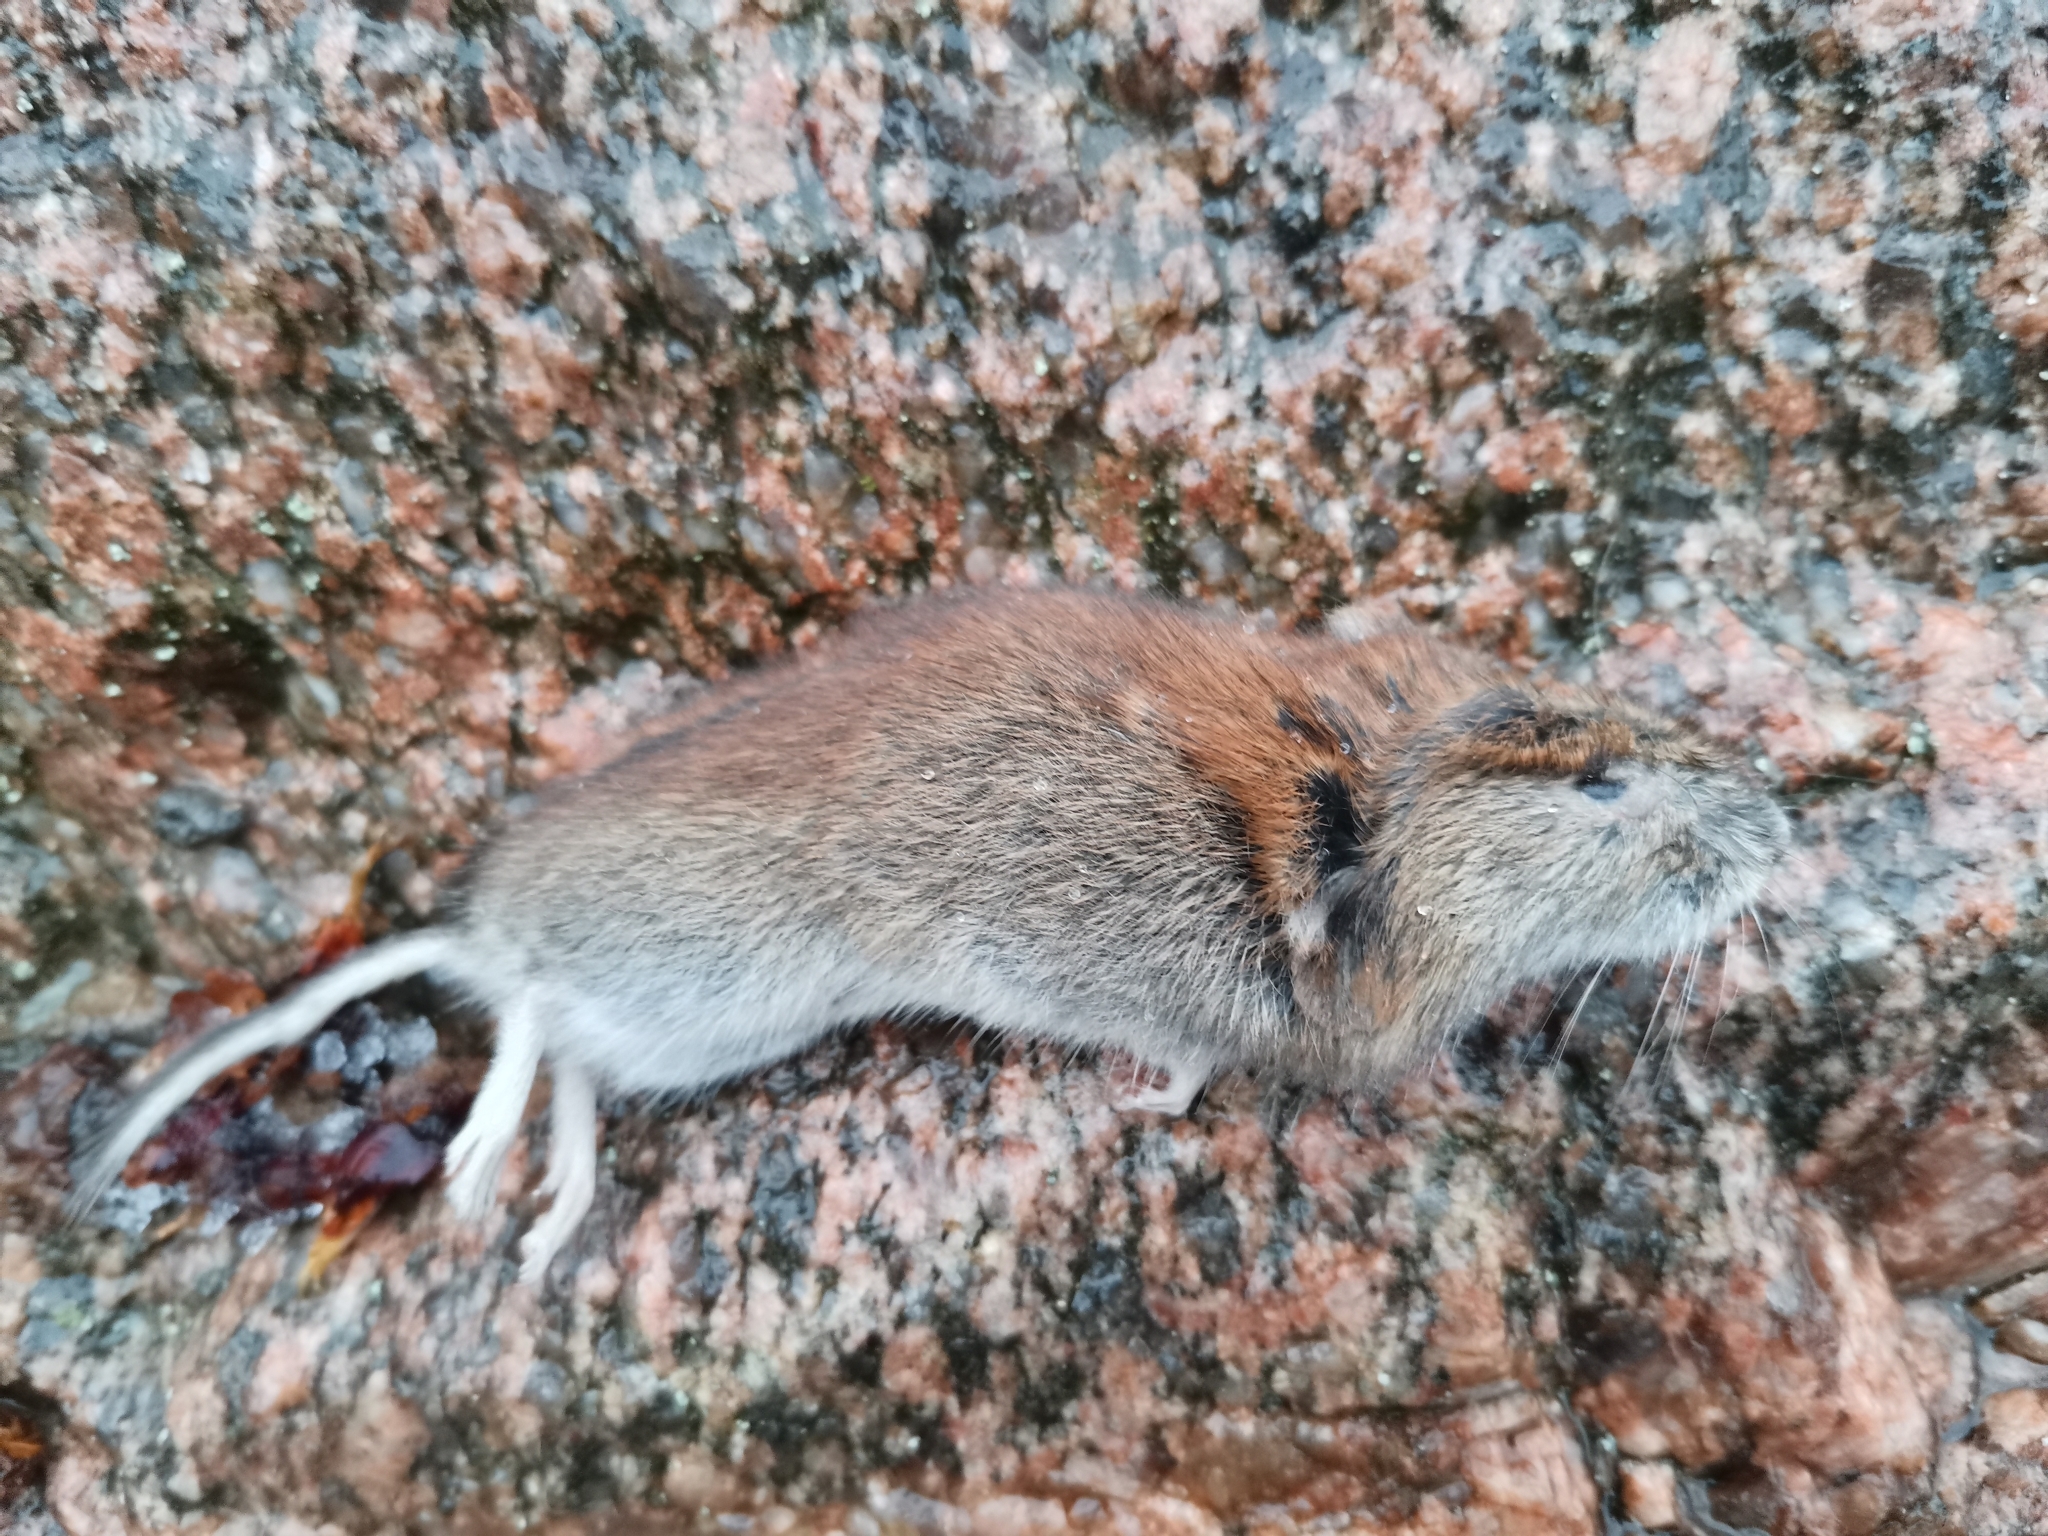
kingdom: Animalia
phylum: Chordata
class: Mammalia
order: Rodentia
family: Cricetidae
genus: Myodes
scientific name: Myodes glareolus
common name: Bank vole
